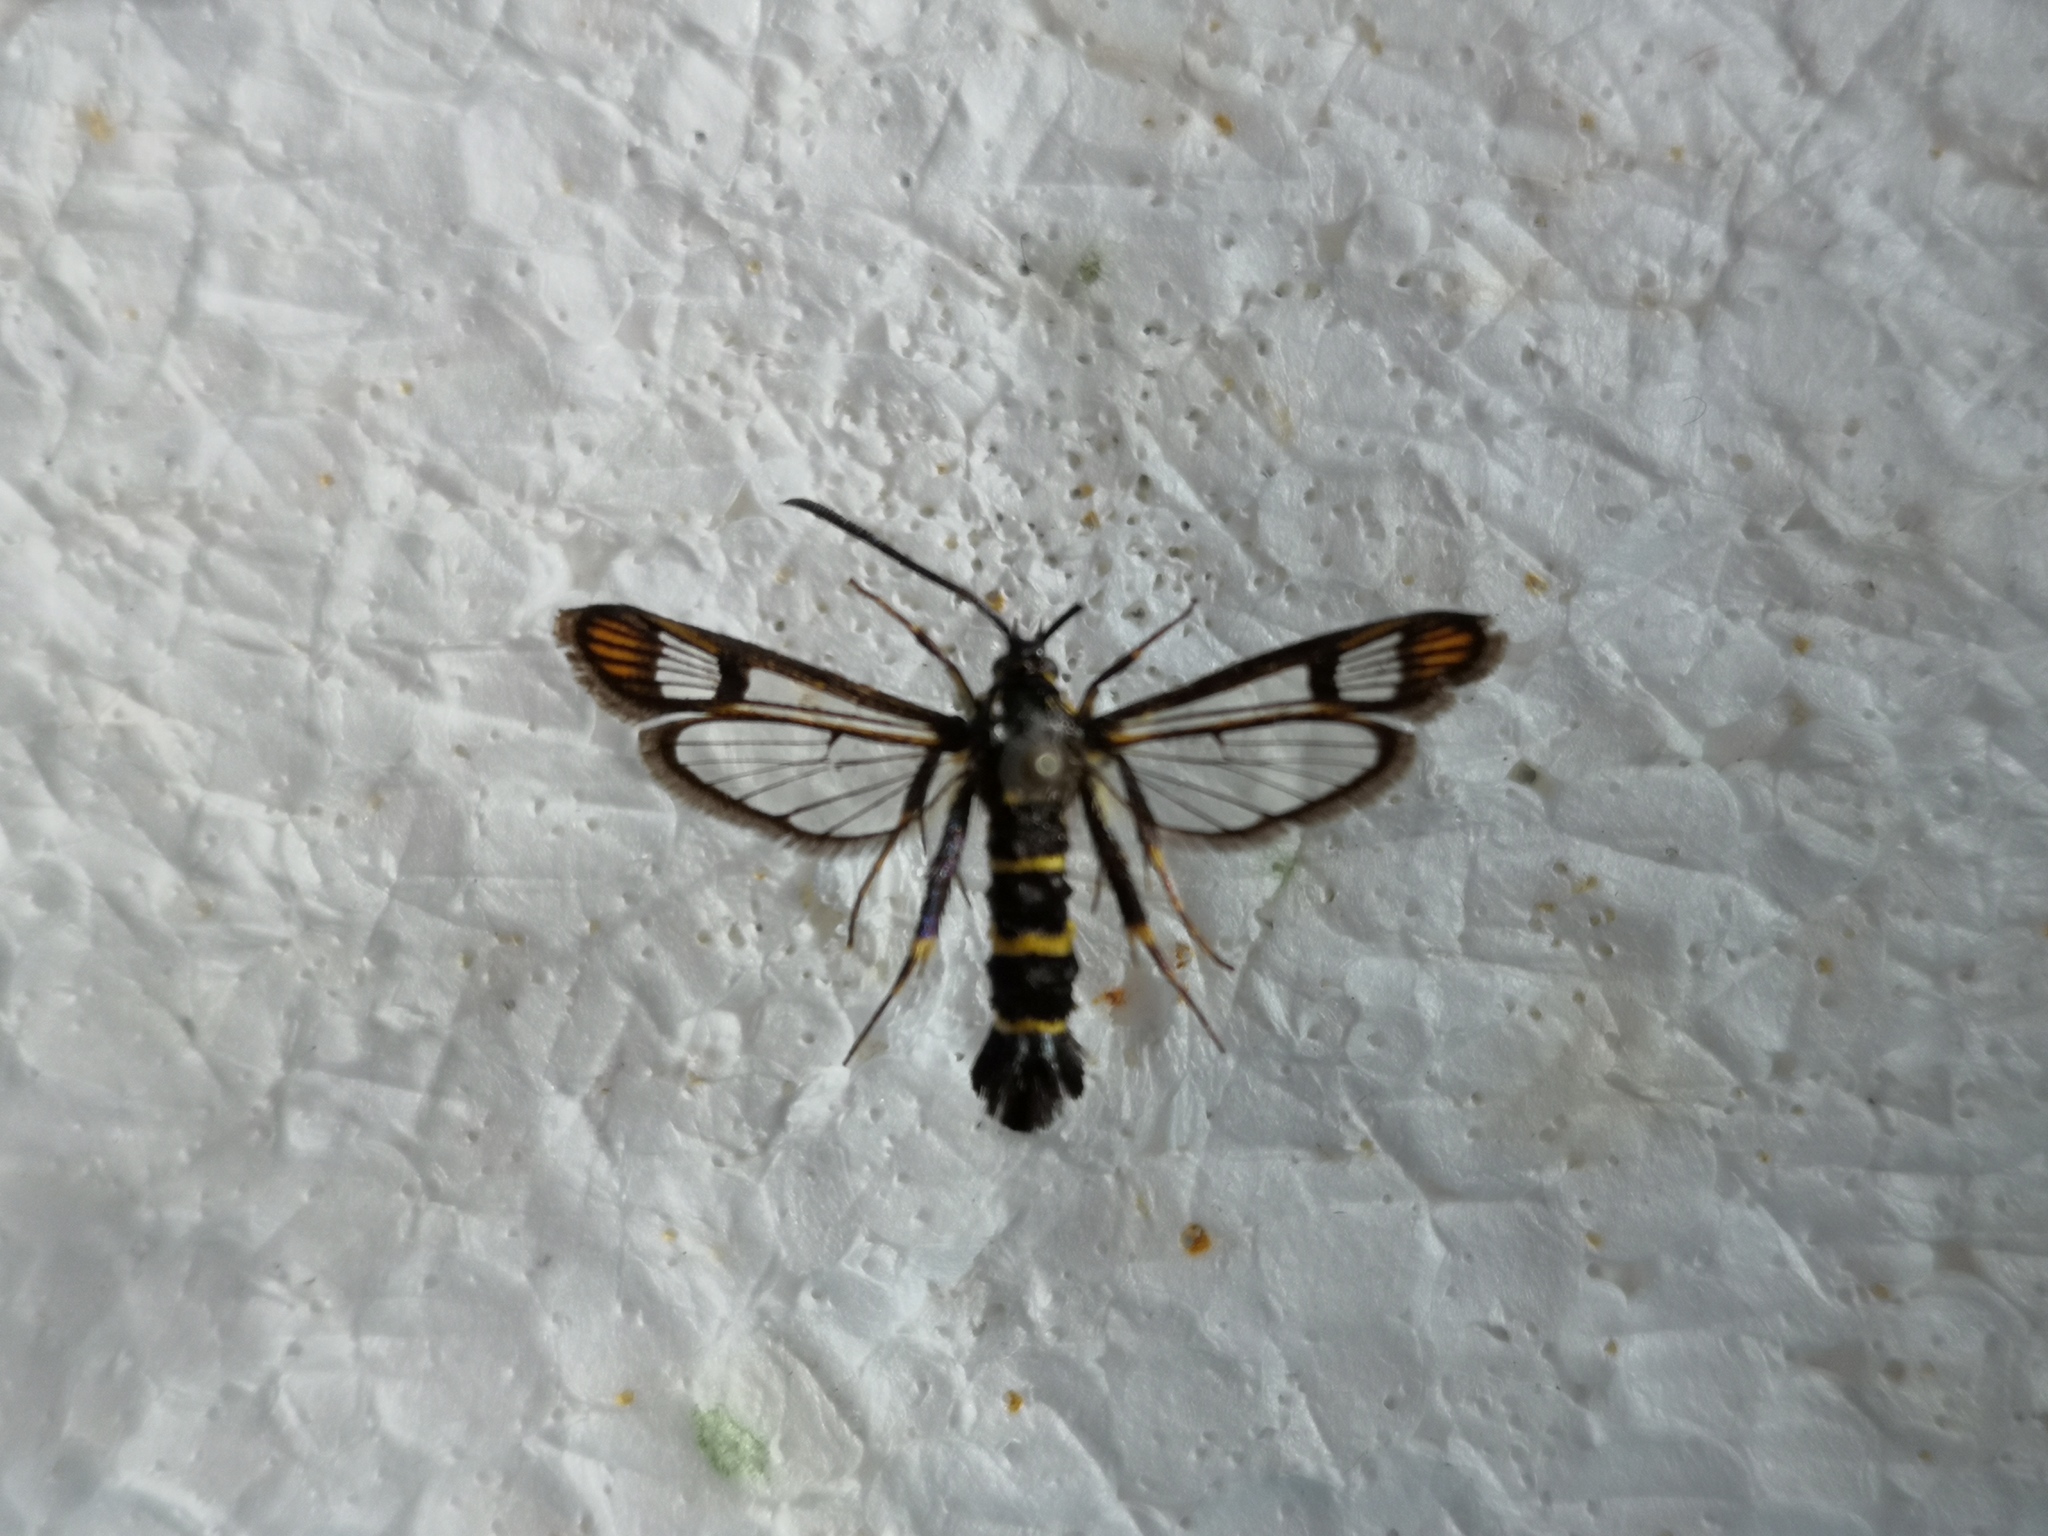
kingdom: Animalia
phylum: Arthropoda
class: Insecta
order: Lepidoptera
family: Sesiidae
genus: Synanthedon
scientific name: Synanthedon conopiformis
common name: Dale's oak clearwing
